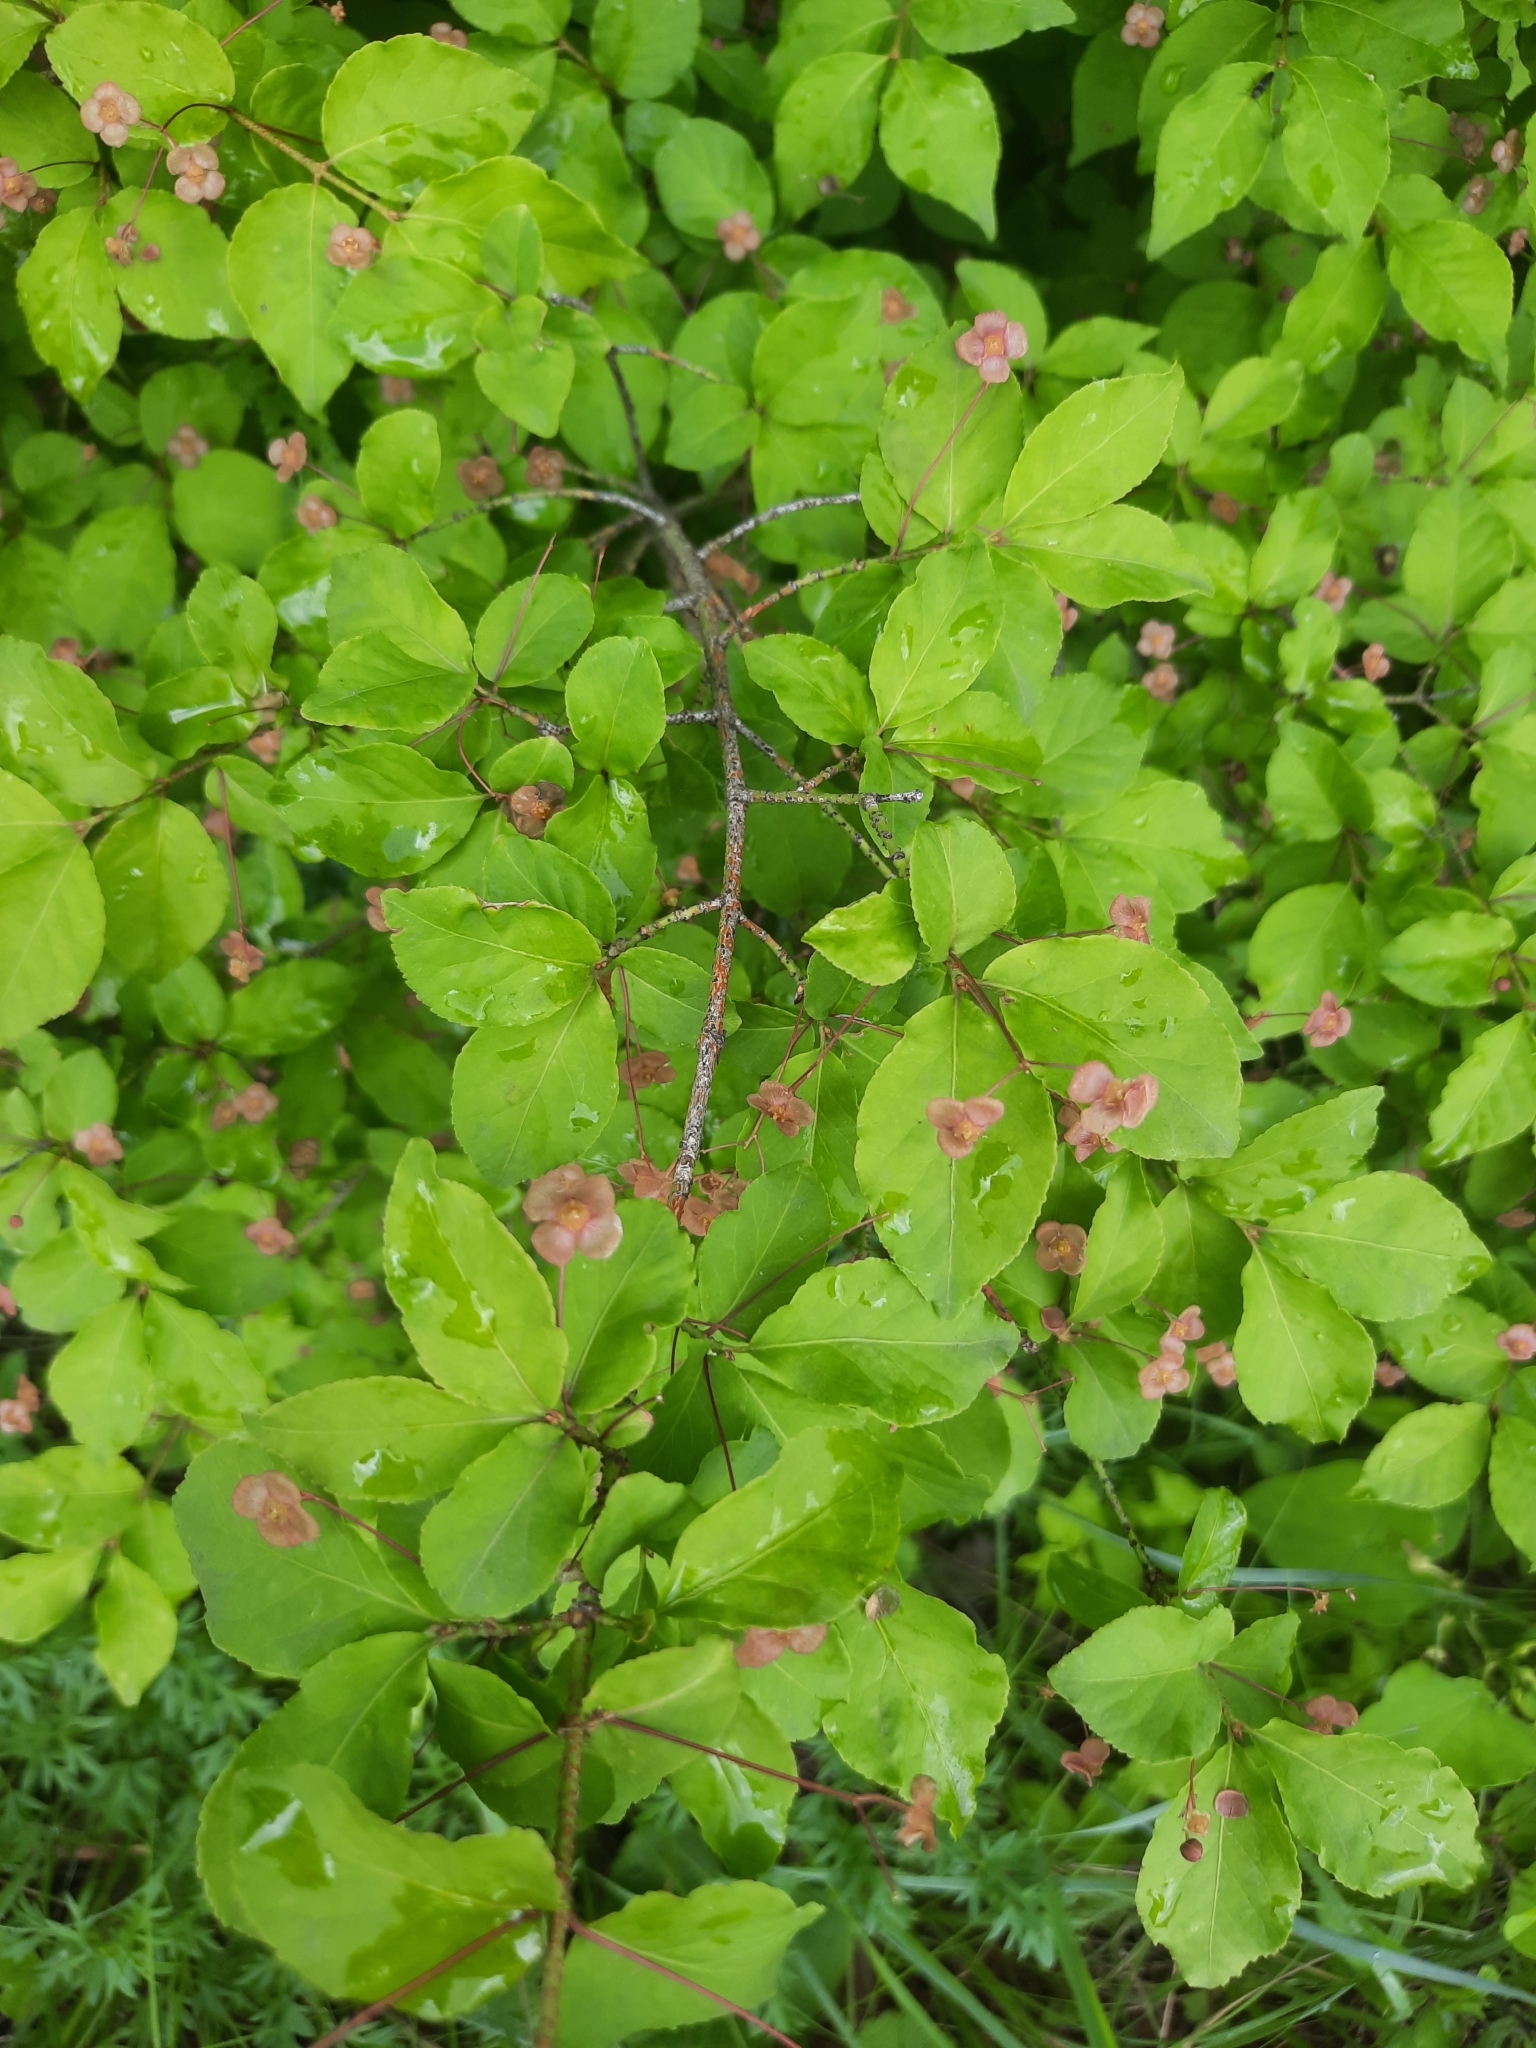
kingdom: Plantae
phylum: Tracheophyta
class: Magnoliopsida
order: Celastrales
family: Celastraceae
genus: Euonymus
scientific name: Euonymus verrucosus
